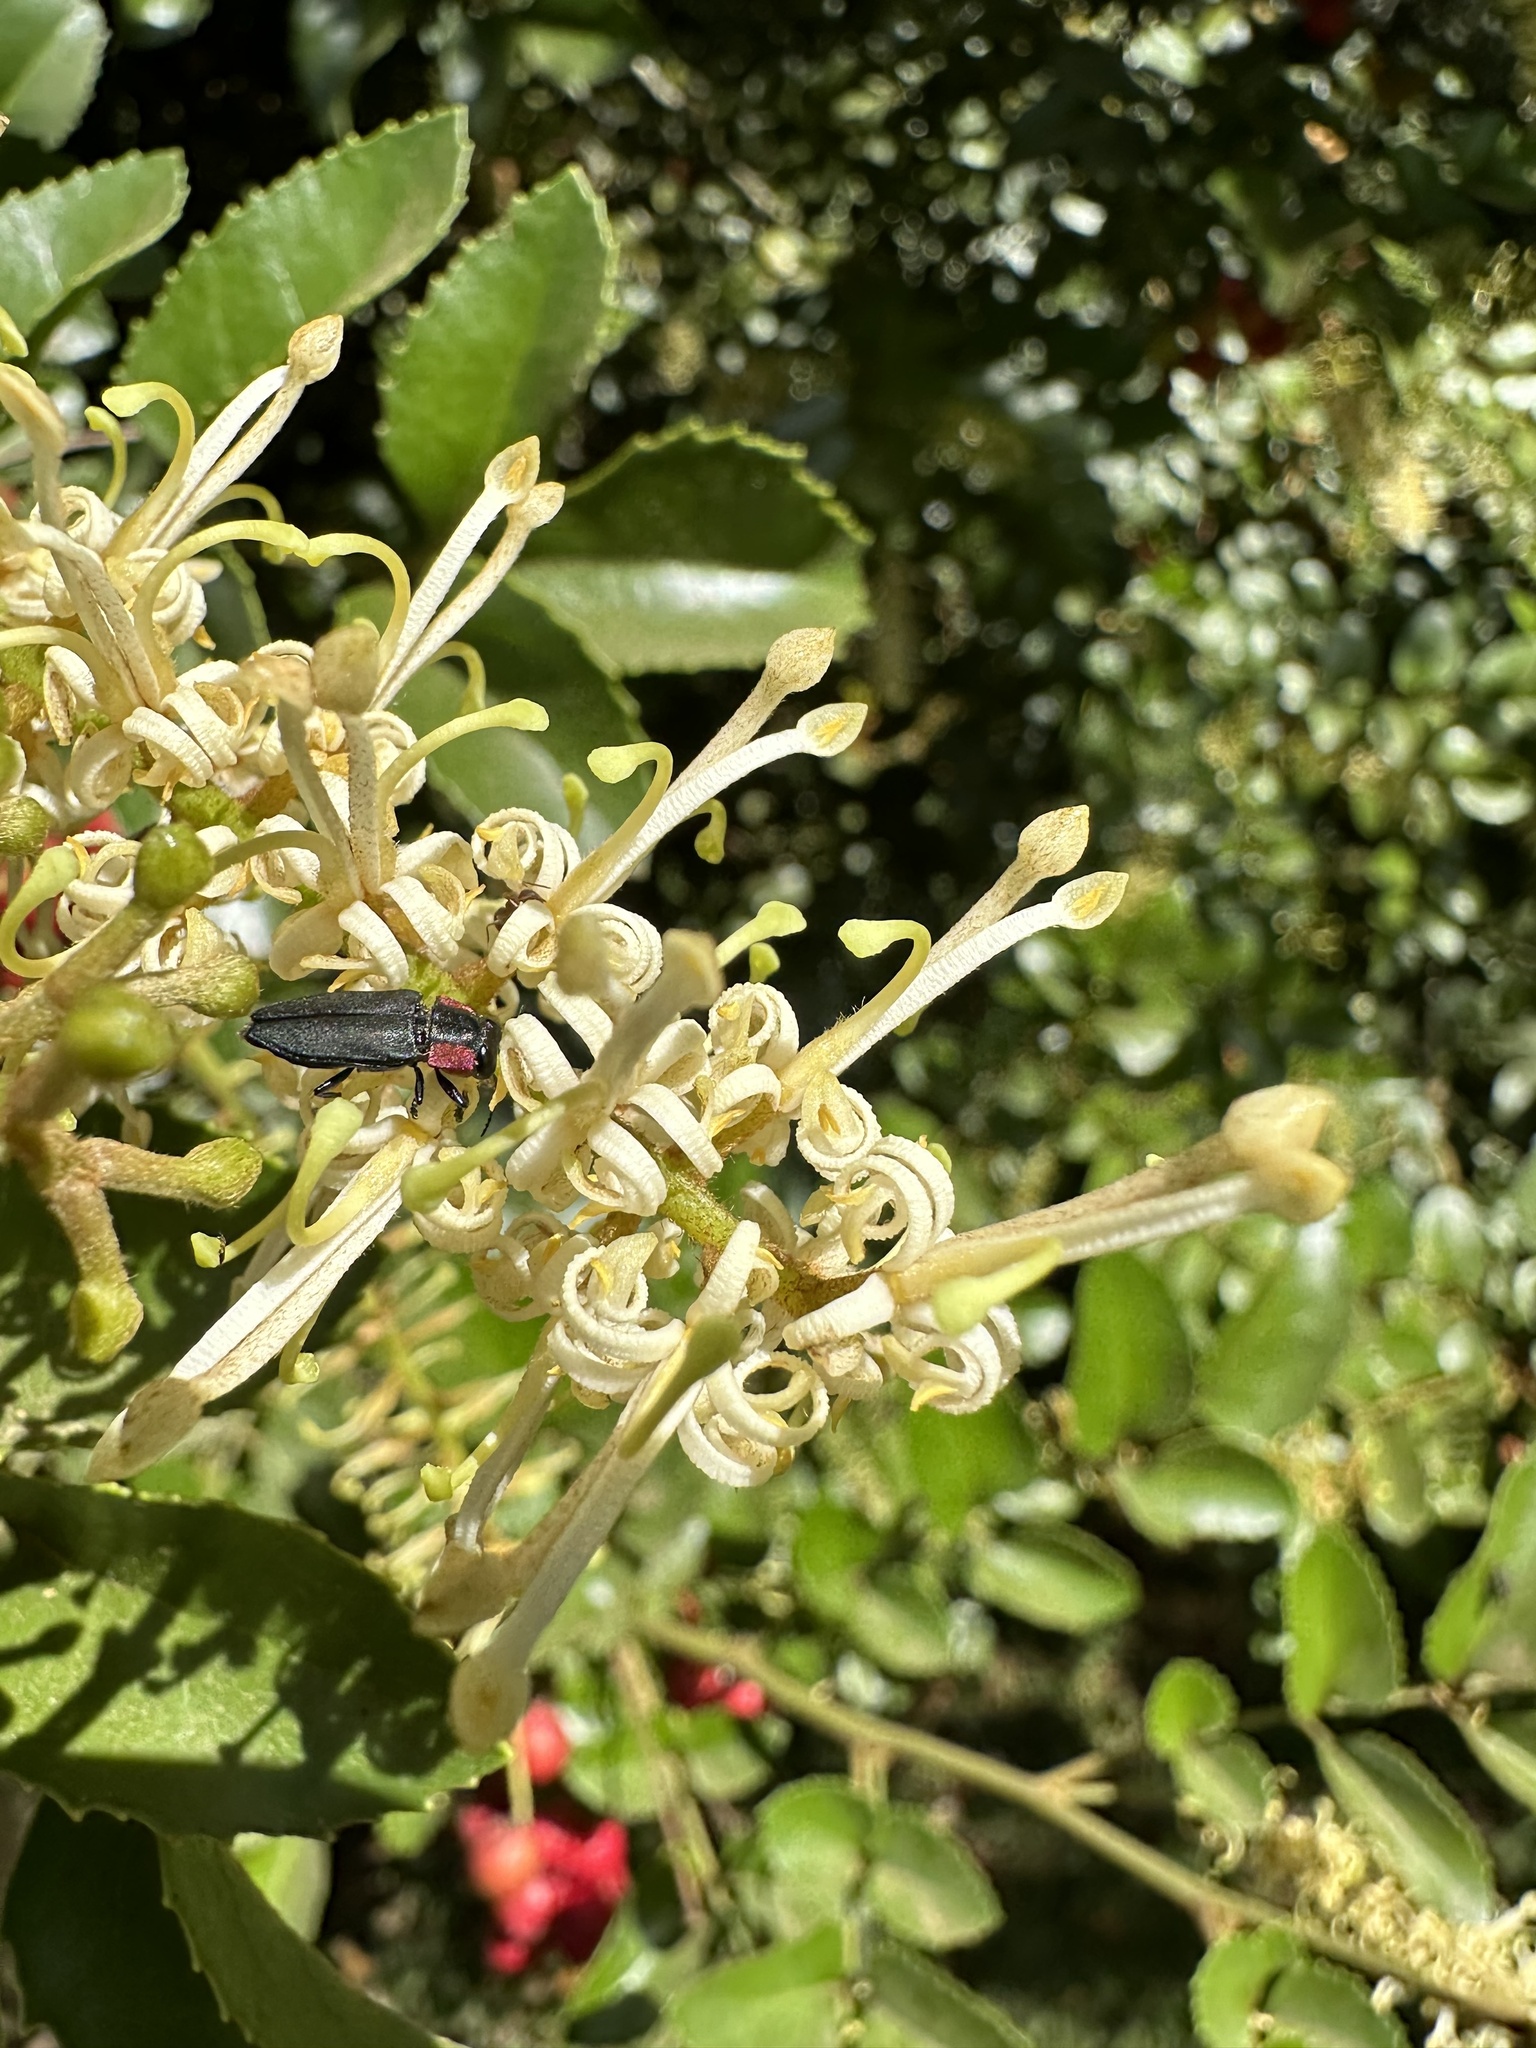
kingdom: Animalia
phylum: Arthropoda
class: Insecta
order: Coleoptera
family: Buprestidae
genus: Romanophora
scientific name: Romanophora verecunda
